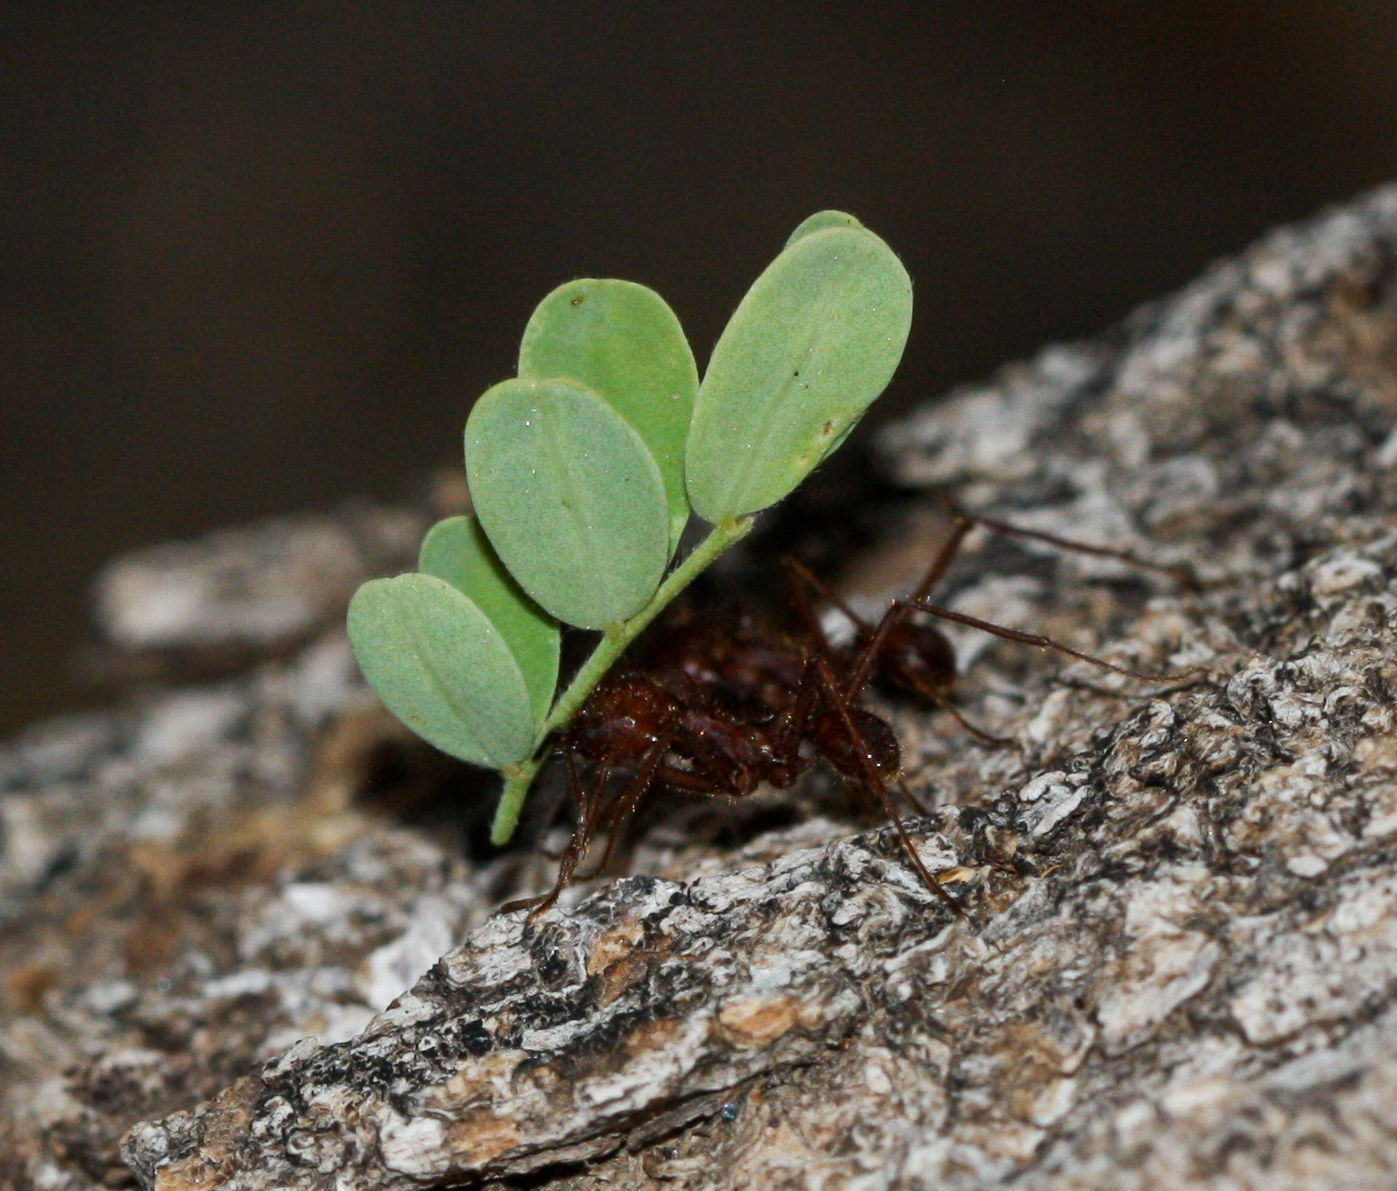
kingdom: Animalia
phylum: Arthropoda
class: Insecta
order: Hymenoptera
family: Formicidae
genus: Atta
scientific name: Atta mexicana
